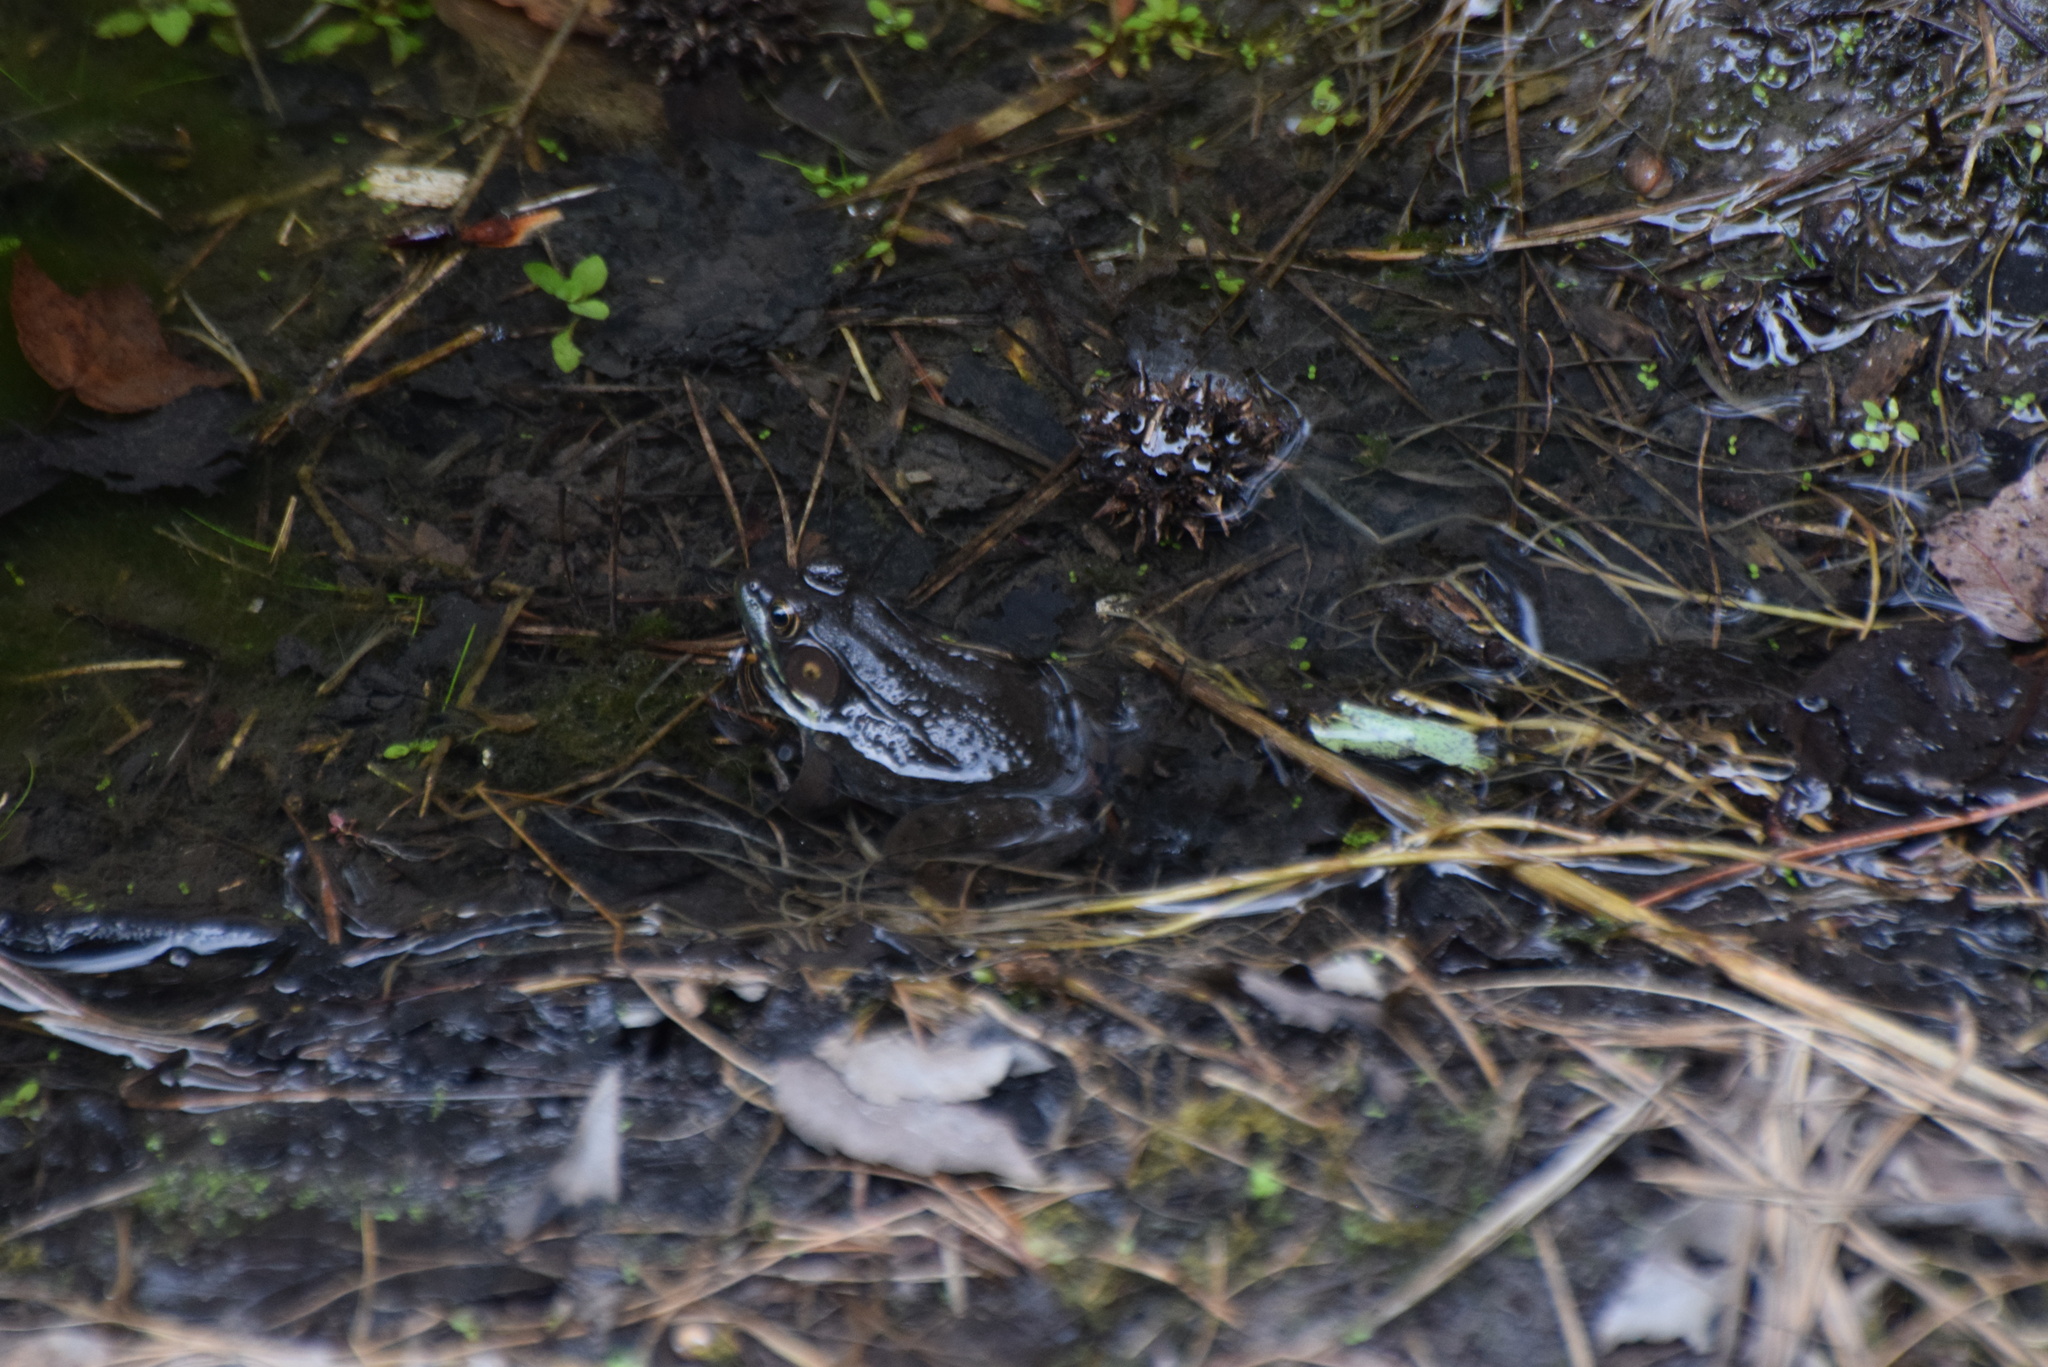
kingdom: Animalia
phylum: Chordata
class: Amphibia
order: Anura
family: Ranidae
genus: Lithobates
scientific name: Lithobates clamitans
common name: Green frog
